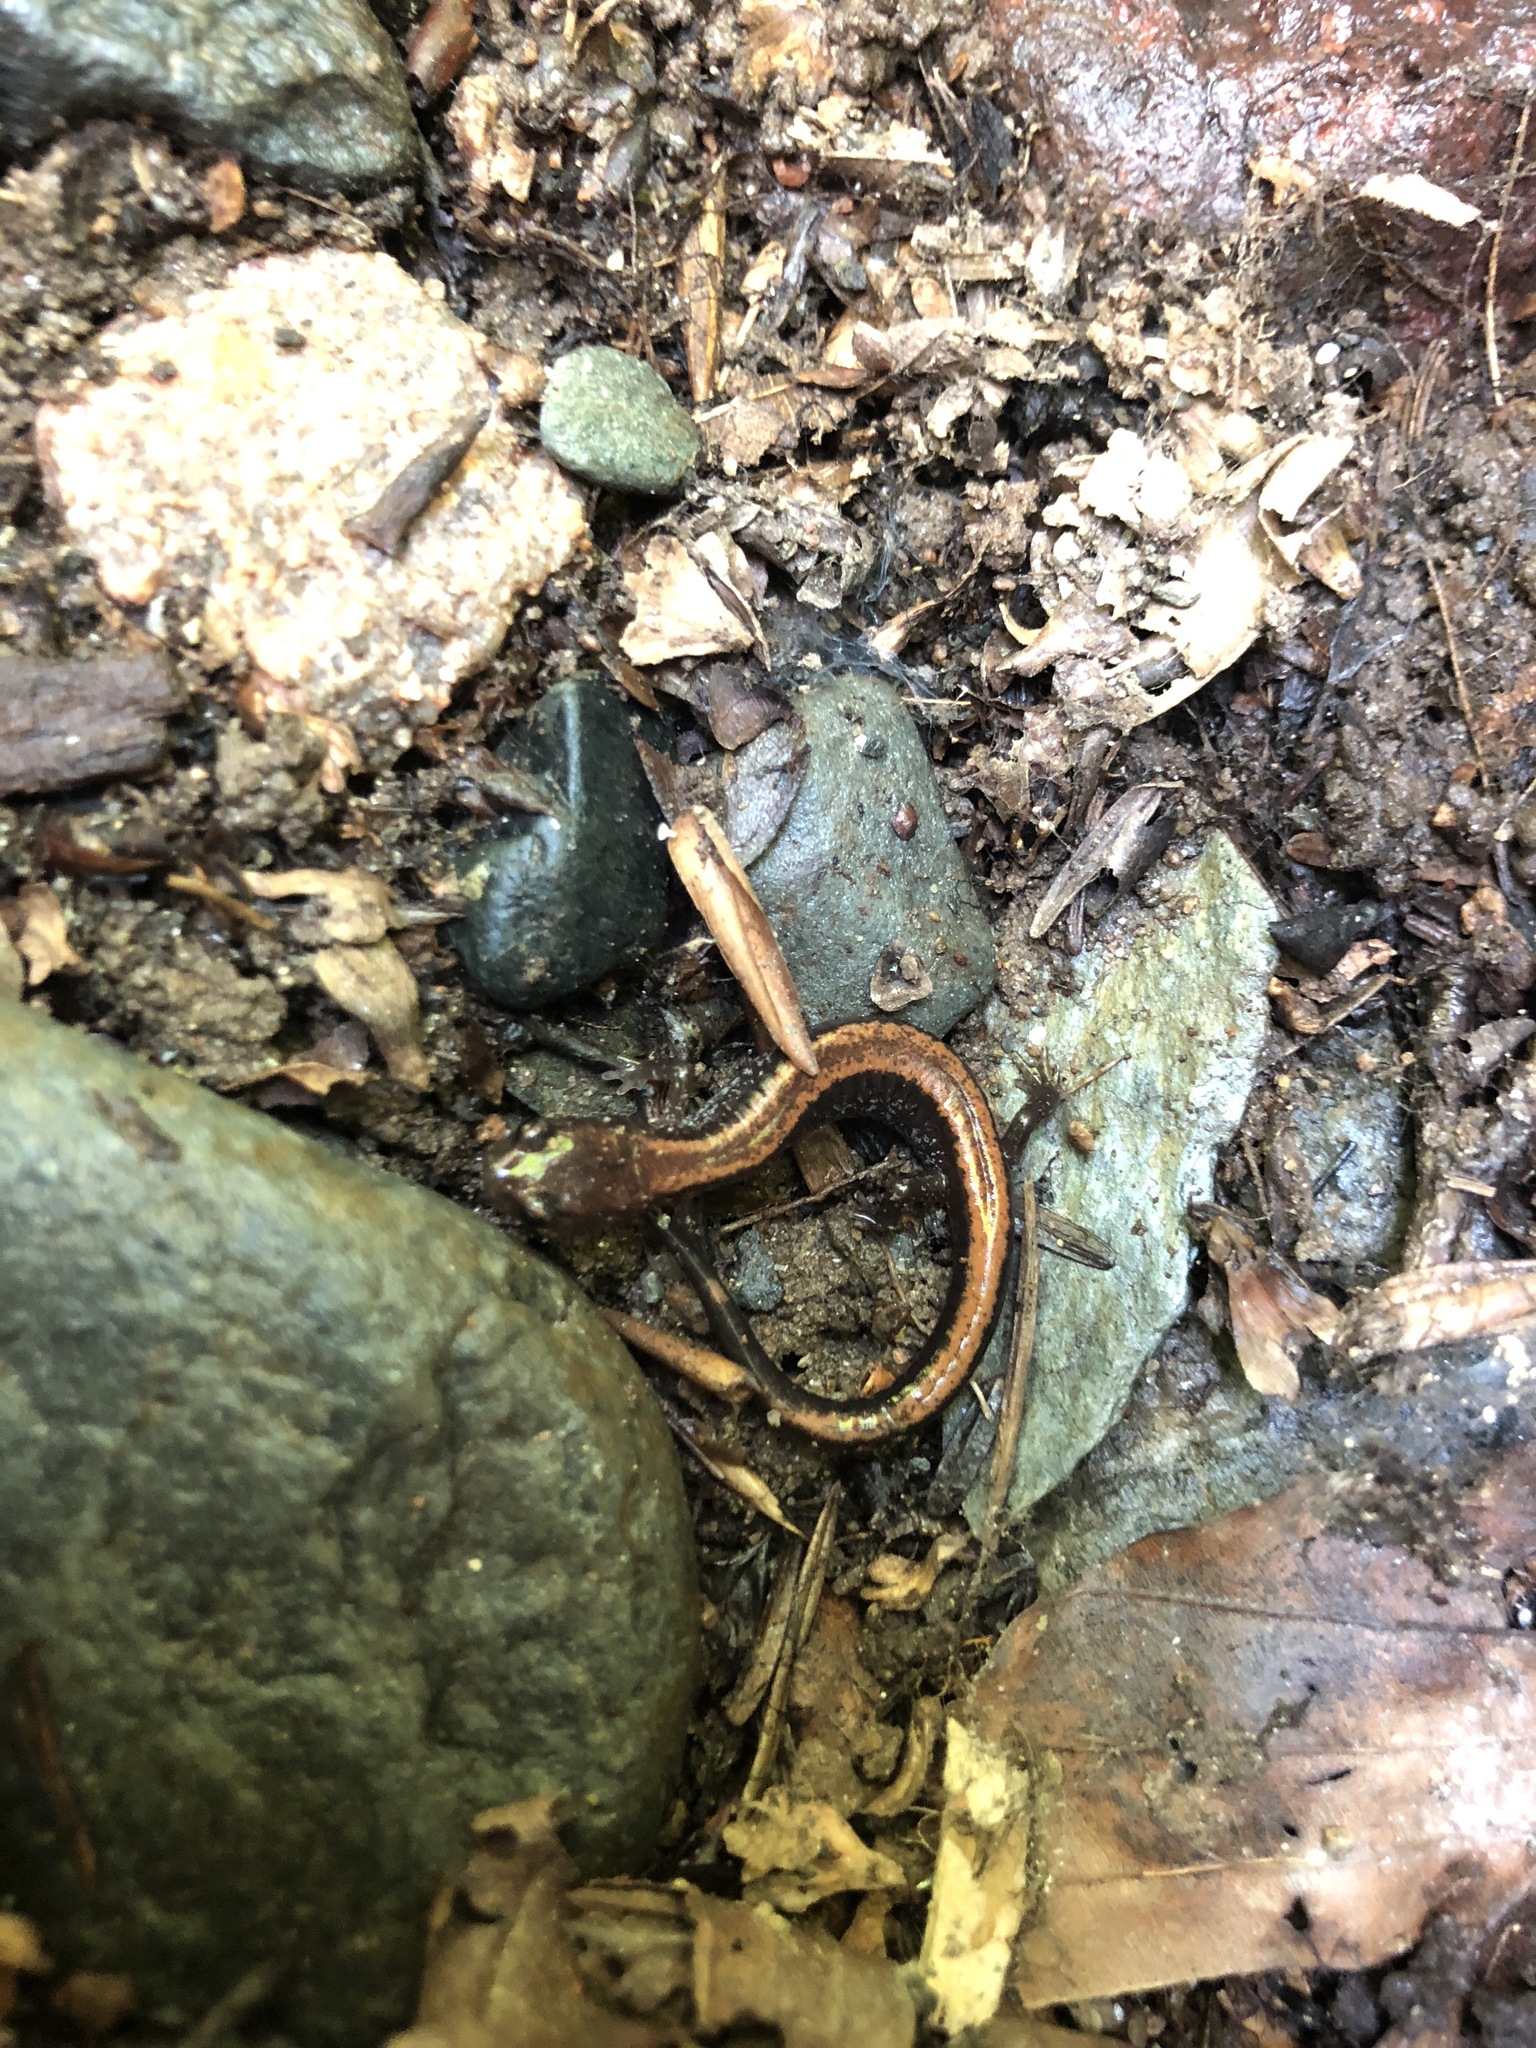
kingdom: Animalia
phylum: Chordata
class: Amphibia
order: Caudata
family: Plethodontidae
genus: Plethodon
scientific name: Plethodon cinereus
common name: Redback salamander
